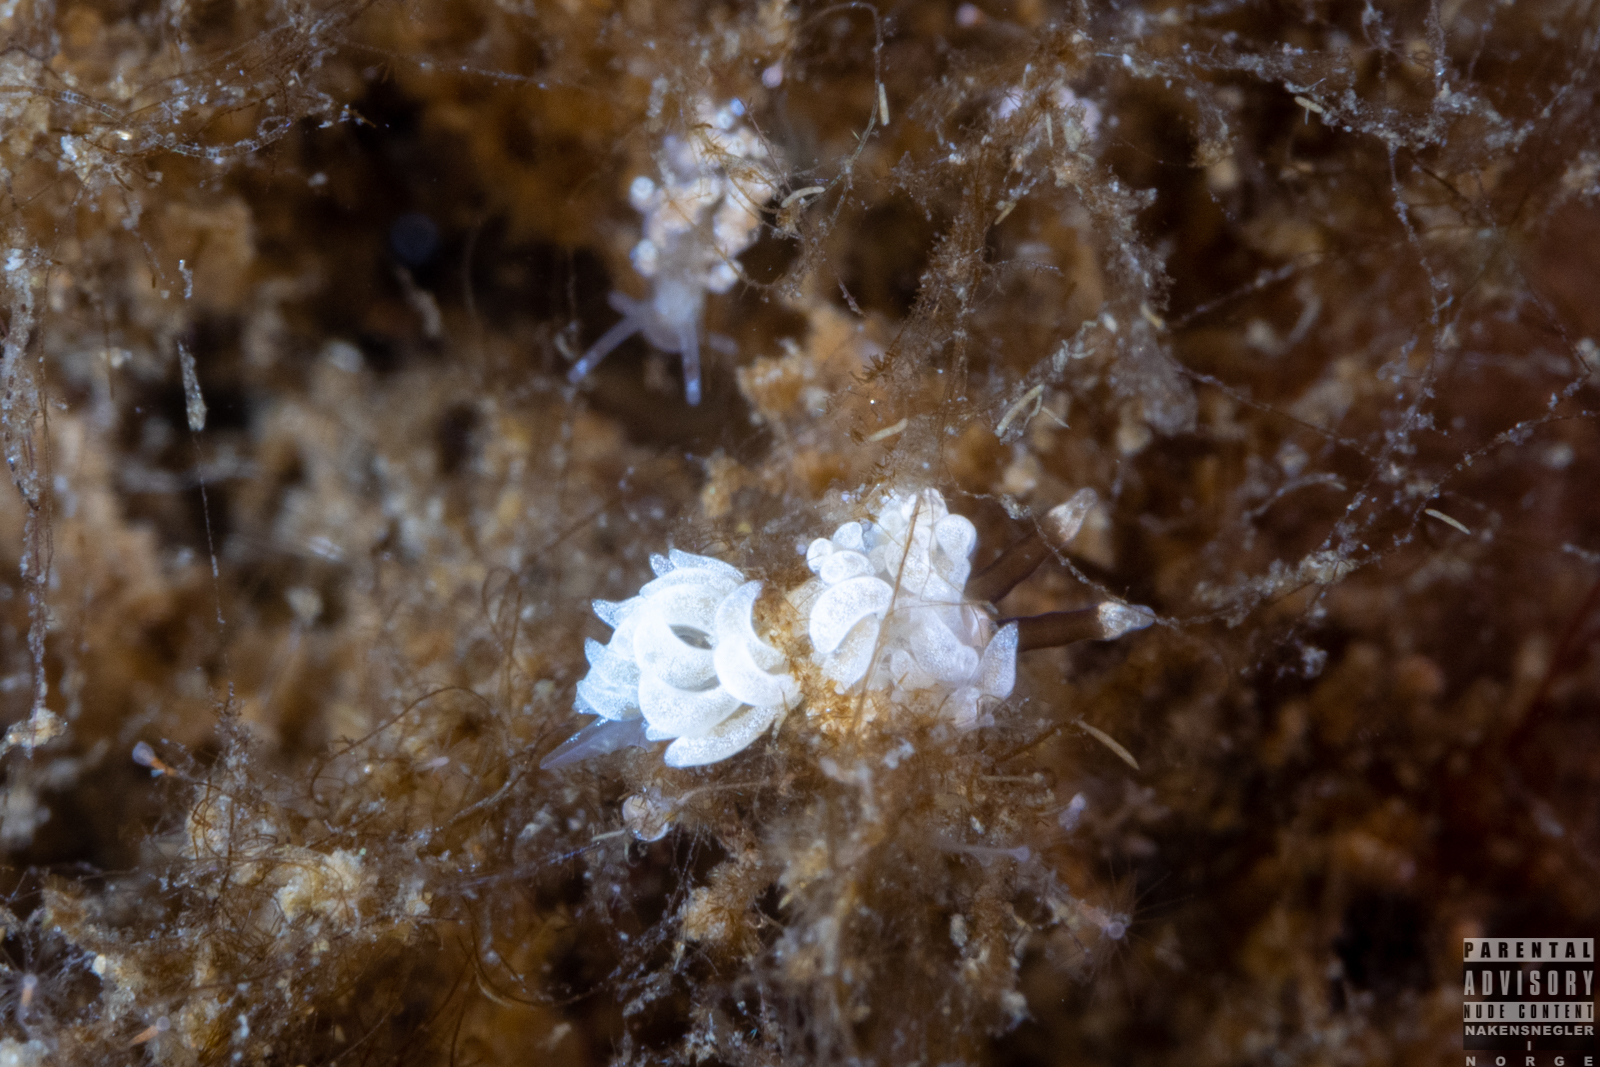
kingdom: Animalia
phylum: Mollusca
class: Gastropoda
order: Nudibranchia
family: Facelinidae
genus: Favorinus
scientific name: Favorinus branchialis
